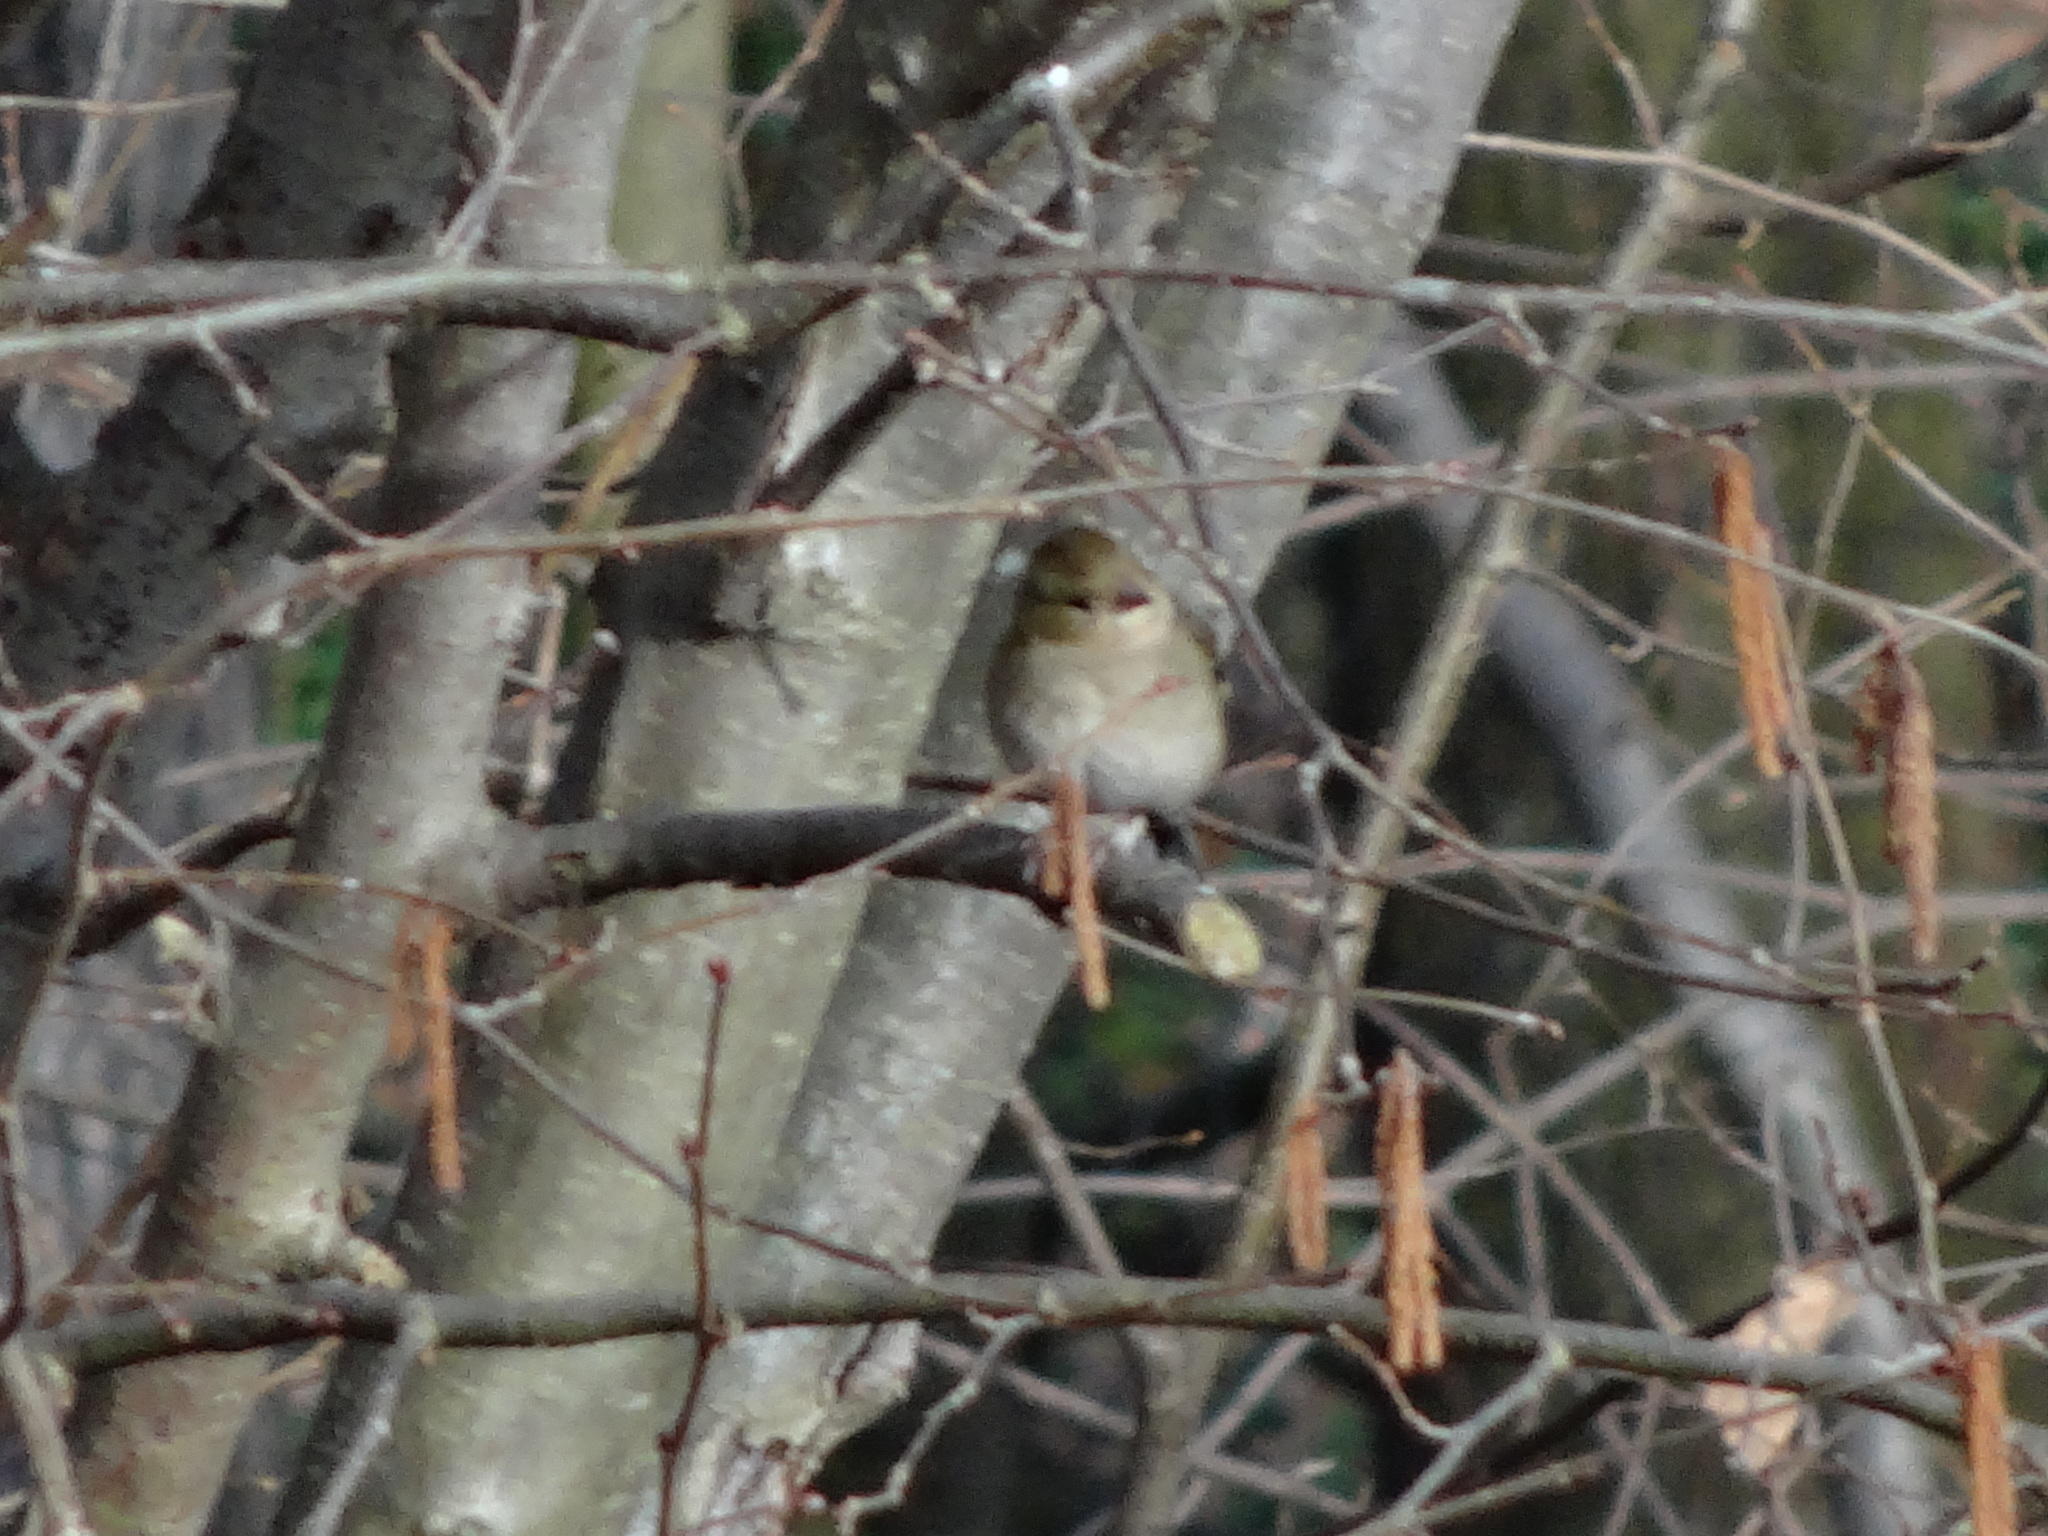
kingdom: Animalia
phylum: Chordata
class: Aves
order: Passeriformes
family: Fringillidae
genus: Fringilla
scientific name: Fringilla coelebs
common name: Common chaffinch
